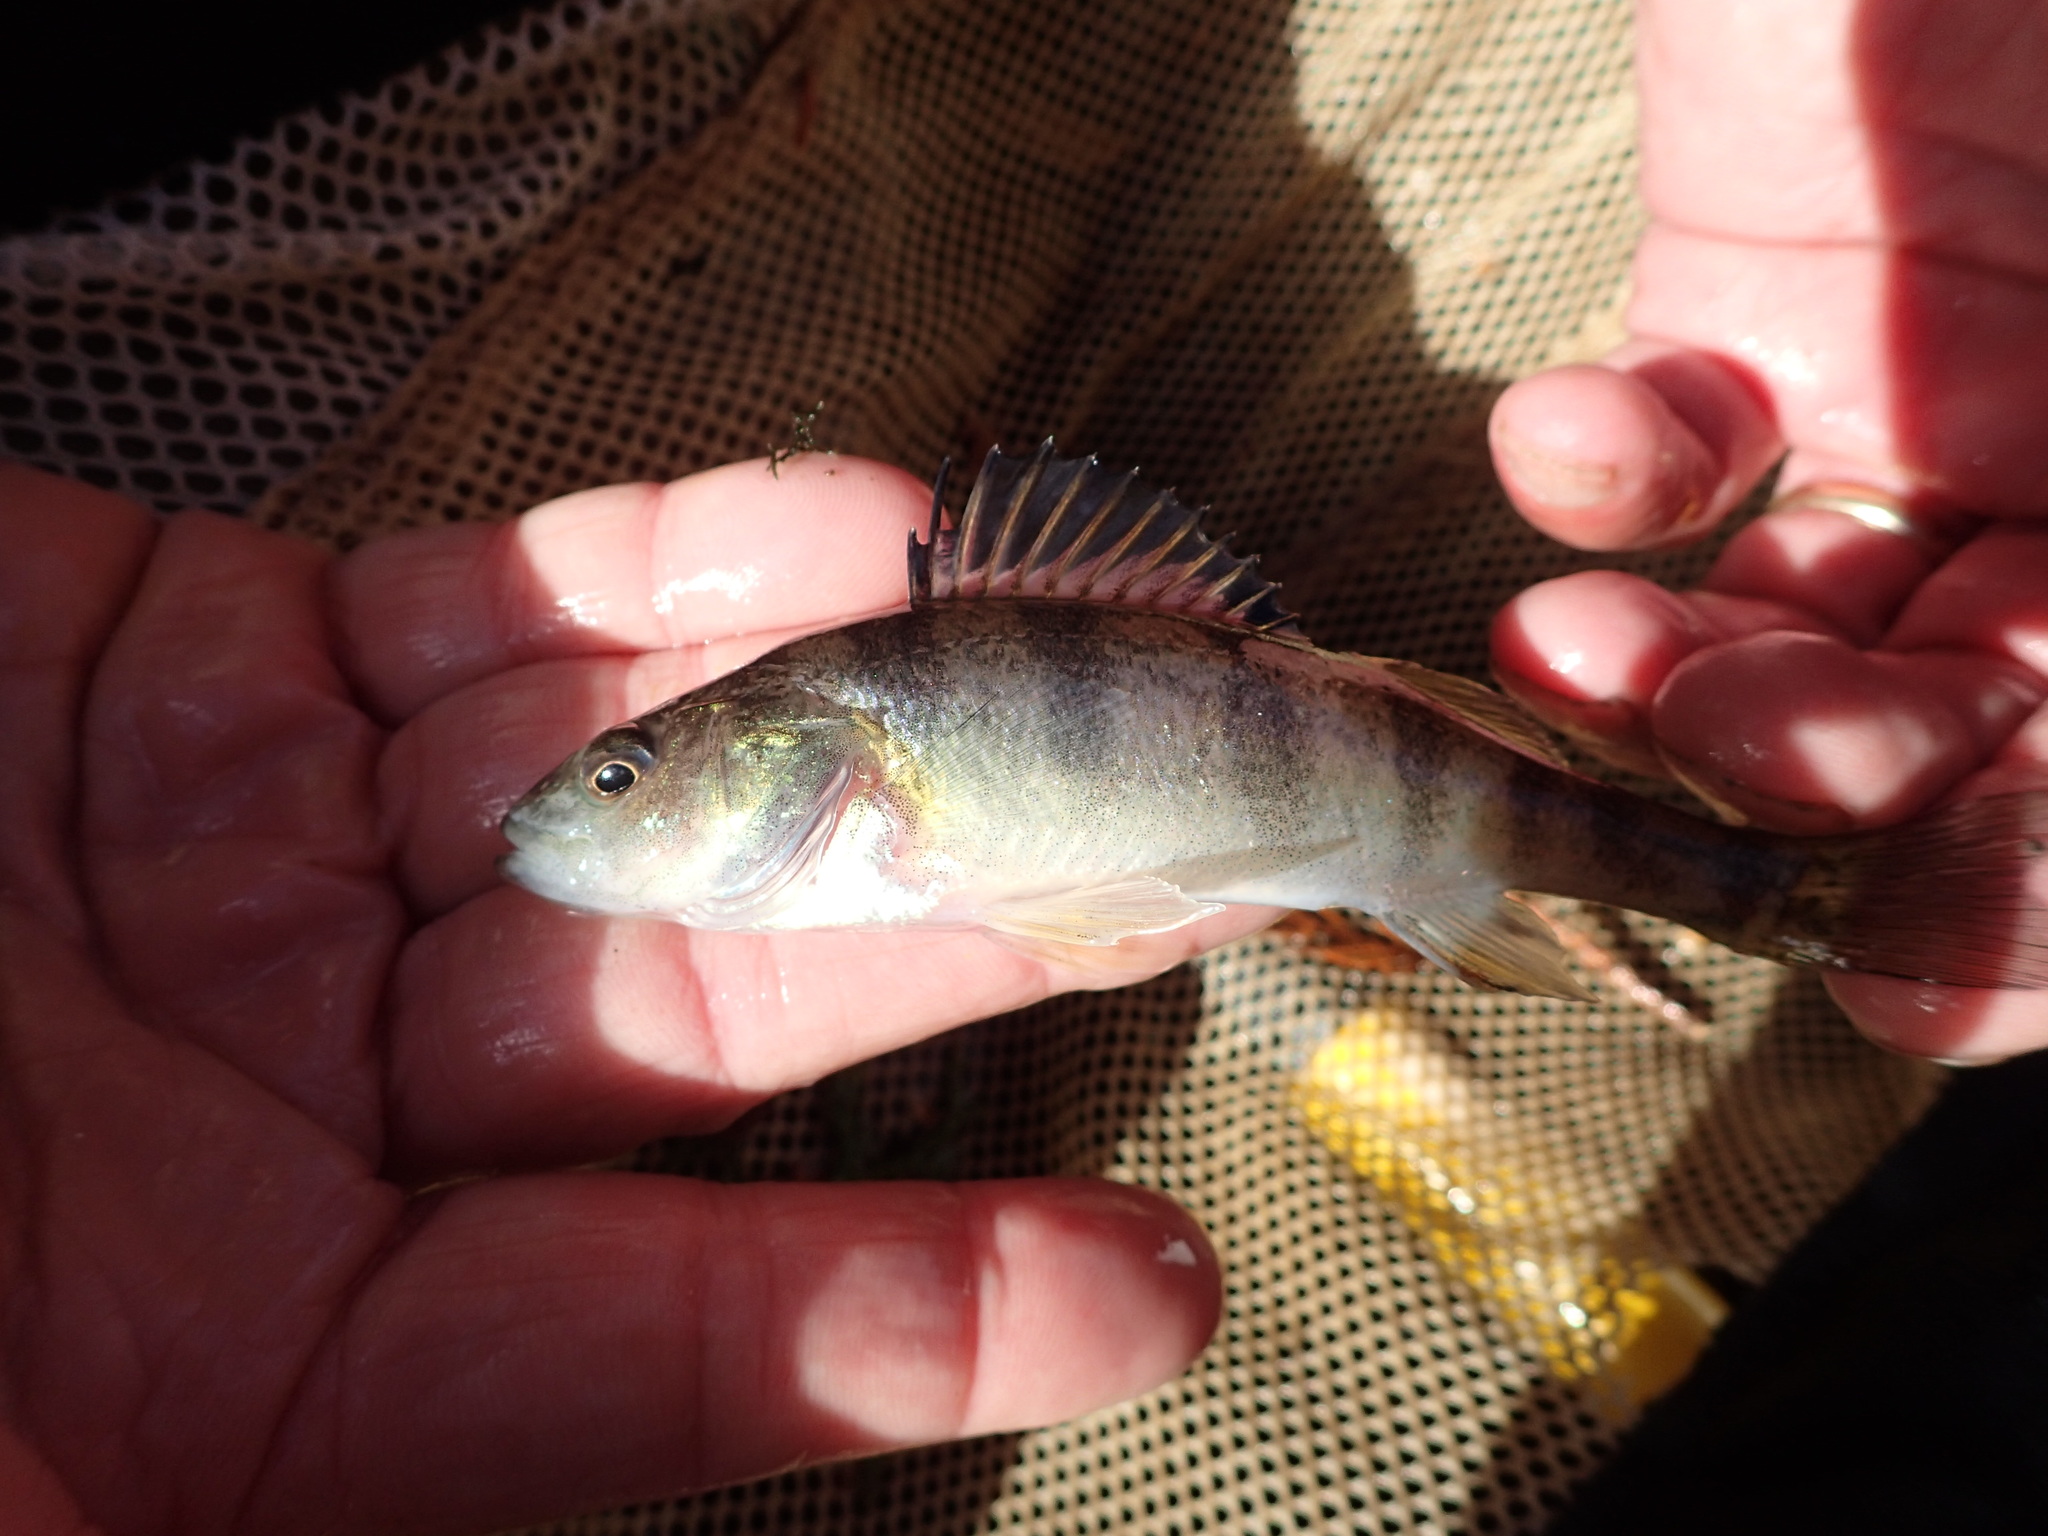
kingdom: Animalia
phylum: Chordata
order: Perciformes
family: Percidae
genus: Perca
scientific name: Perca flavescens
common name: Yellow perch
